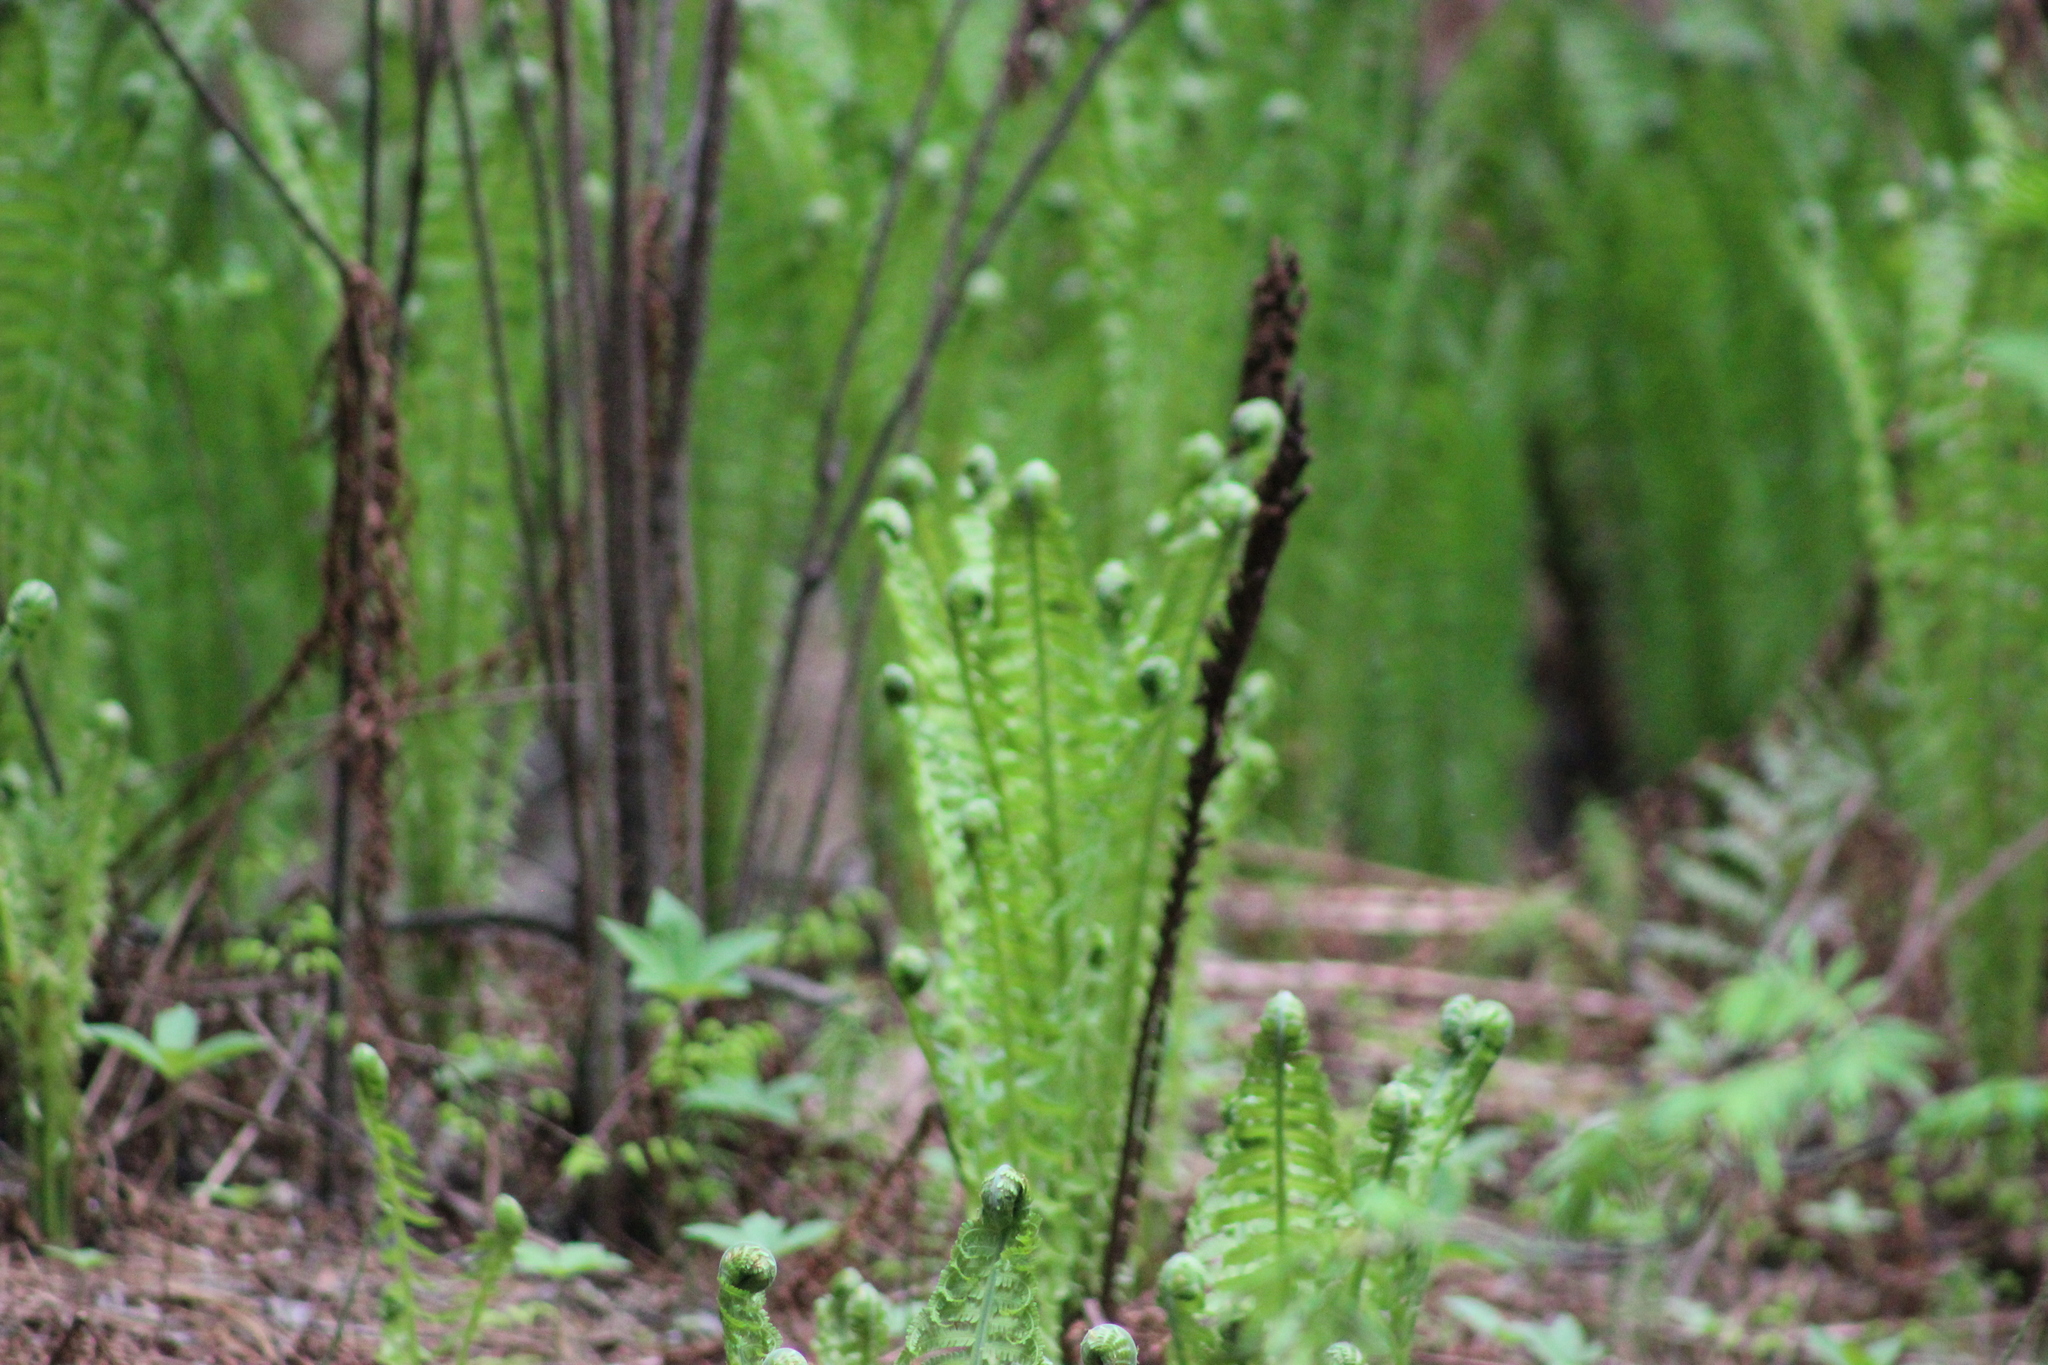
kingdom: Plantae
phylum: Tracheophyta
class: Polypodiopsida
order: Polypodiales
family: Onocleaceae
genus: Matteuccia
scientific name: Matteuccia struthiopteris
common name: Ostrich fern
